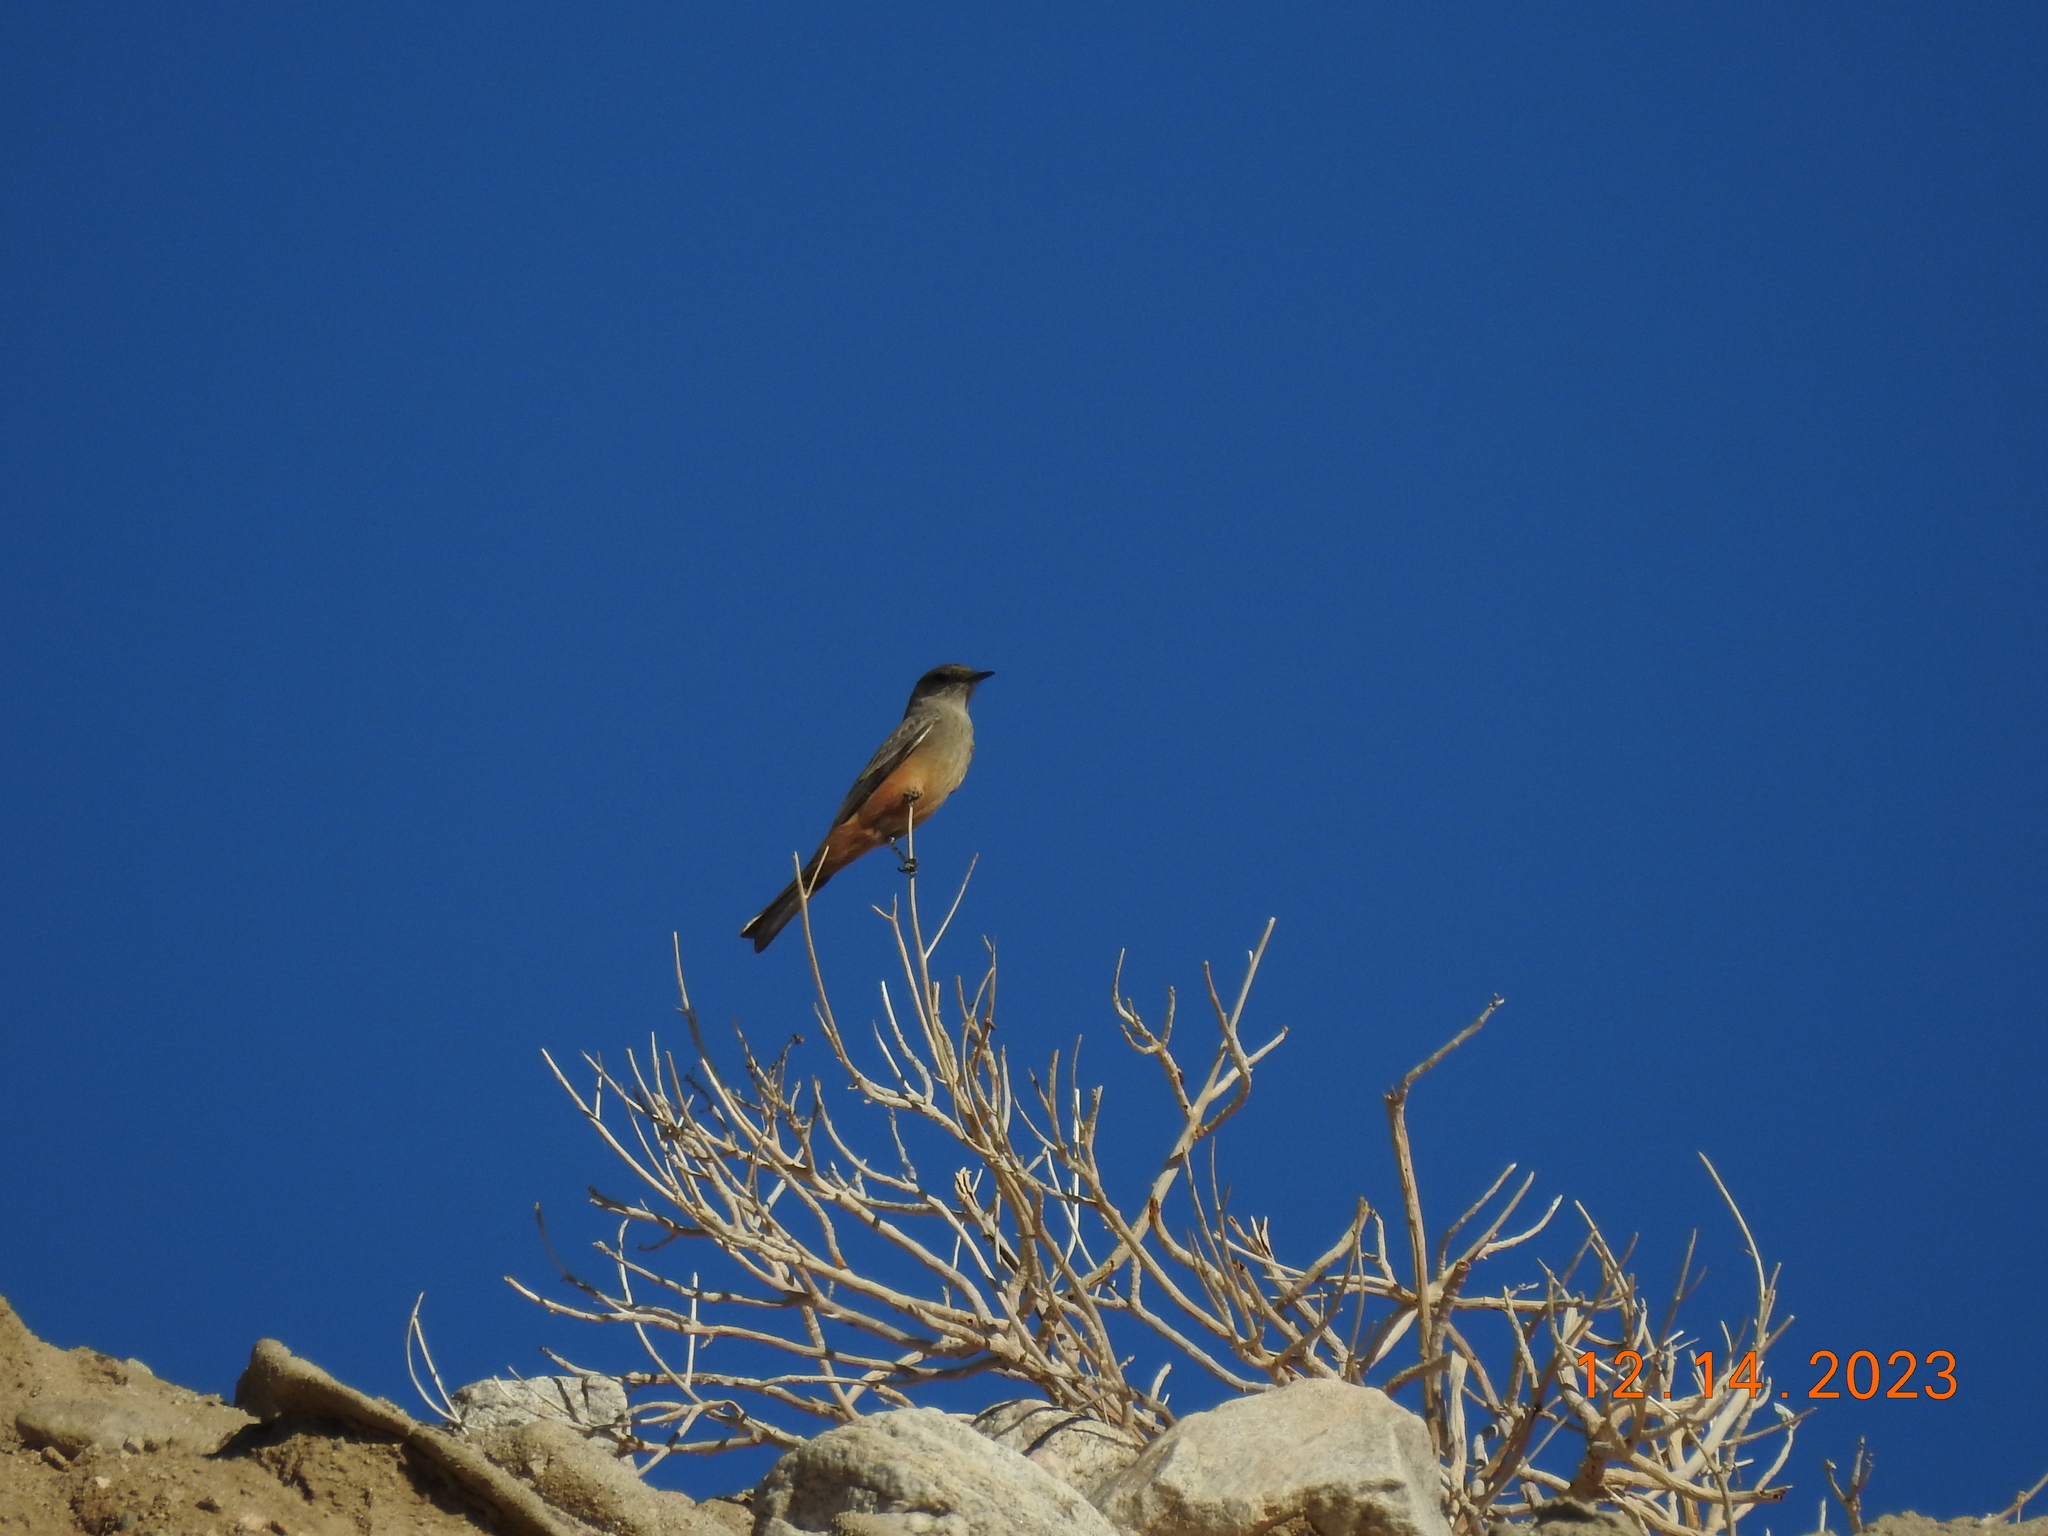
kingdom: Animalia
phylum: Chordata
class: Aves
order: Passeriformes
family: Tyrannidae
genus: Sayornis
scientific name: Sayornis saya
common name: Say's phoebe
